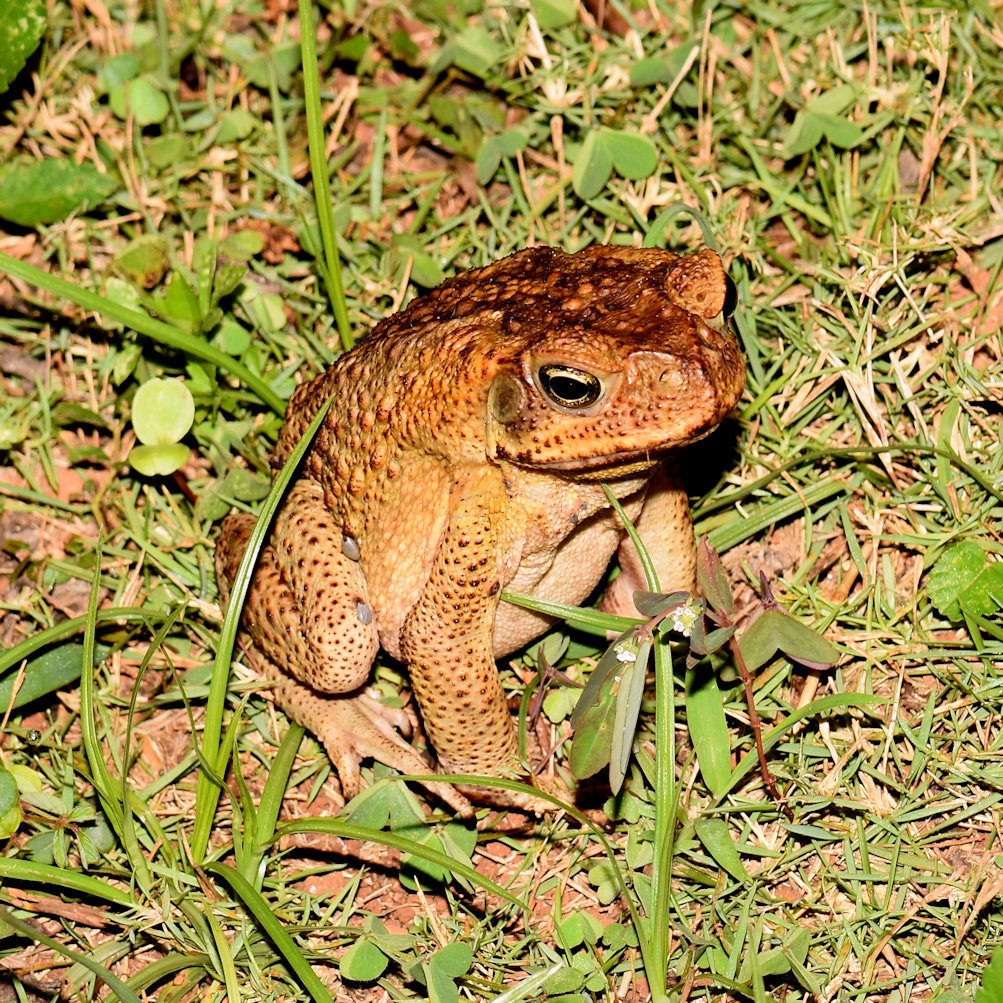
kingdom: Animalia
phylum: Chordata
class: Amphibia
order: Anura
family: Bufonidae
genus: Rhinella
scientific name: Rhinella marina
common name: Cane toad
